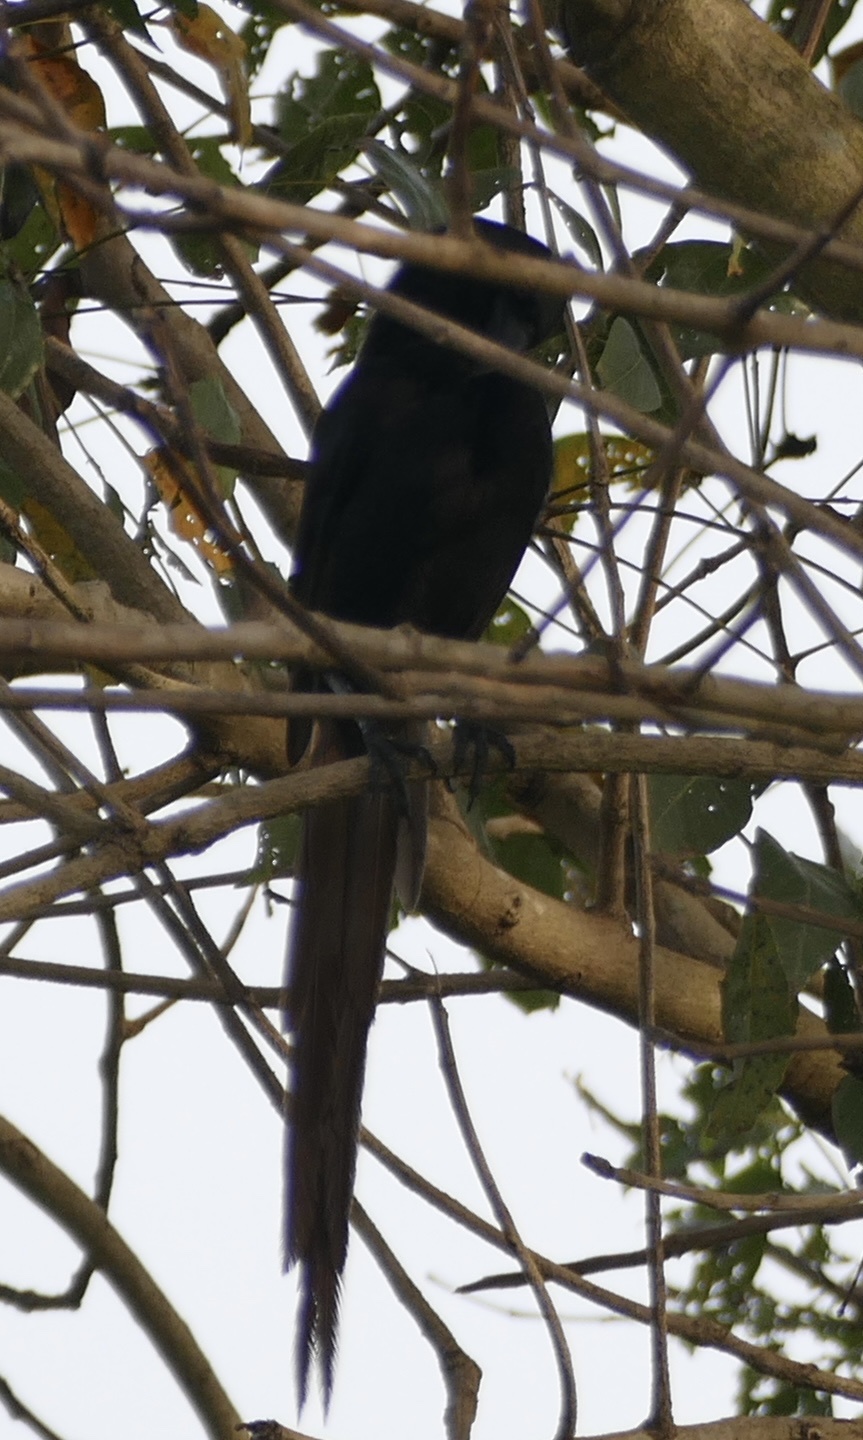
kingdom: Animalia
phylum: Chordata
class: Aves
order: Passeriformes
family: Corvidae
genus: Ptilostomus
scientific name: Ptilostomus afer
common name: Piapiac
